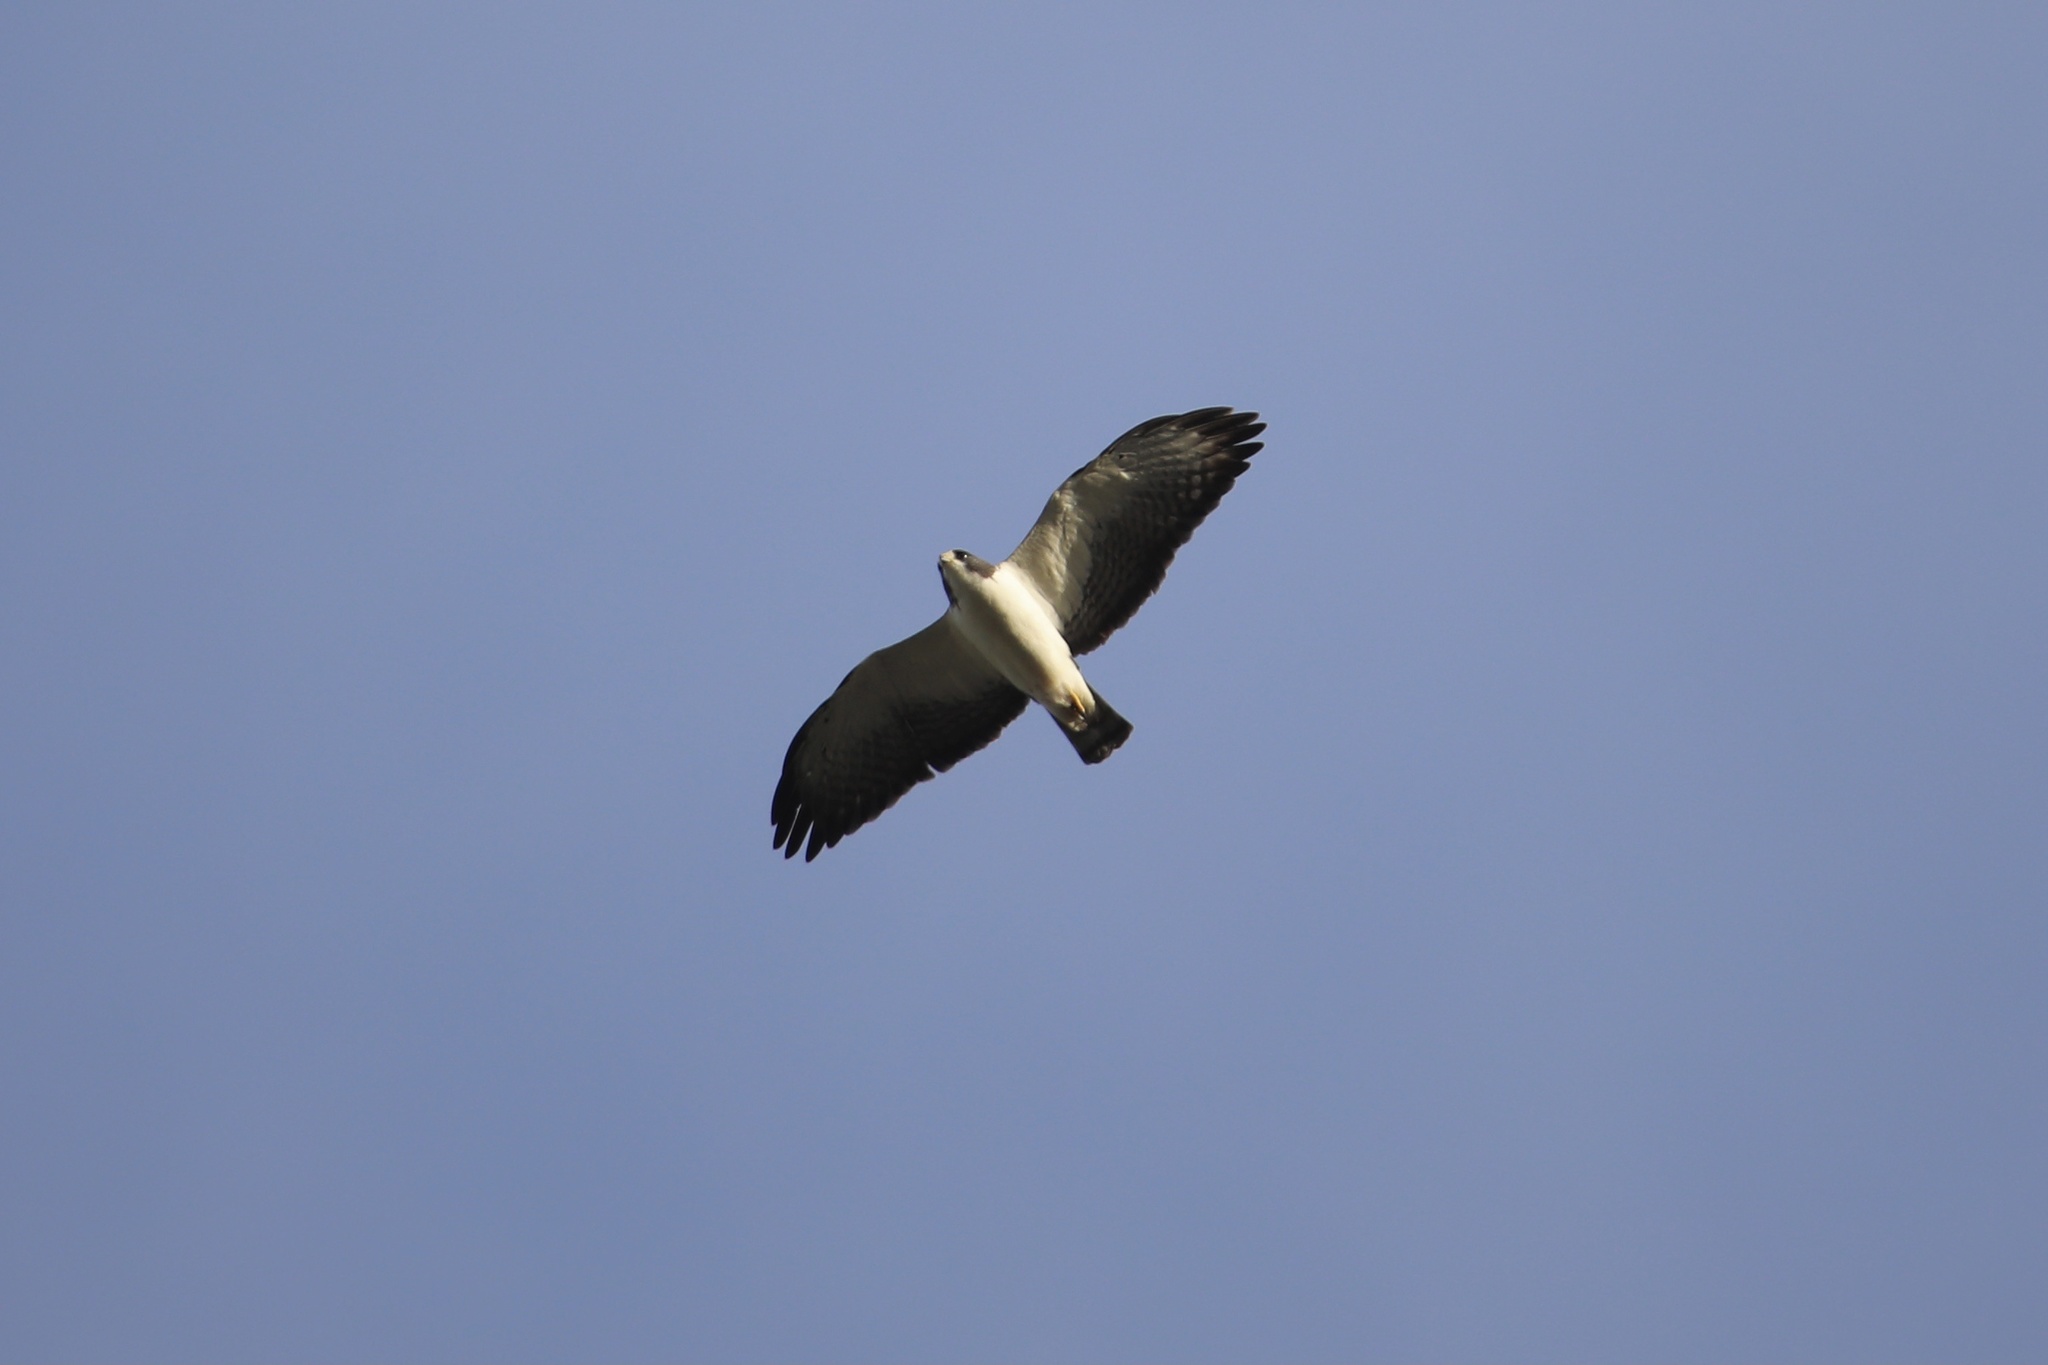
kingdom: Animalia
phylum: Chordata
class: Aves
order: Accipitriformes
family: Accipitridae
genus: Buteo
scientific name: Buteo brachyurus
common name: Short-tailed hawk
